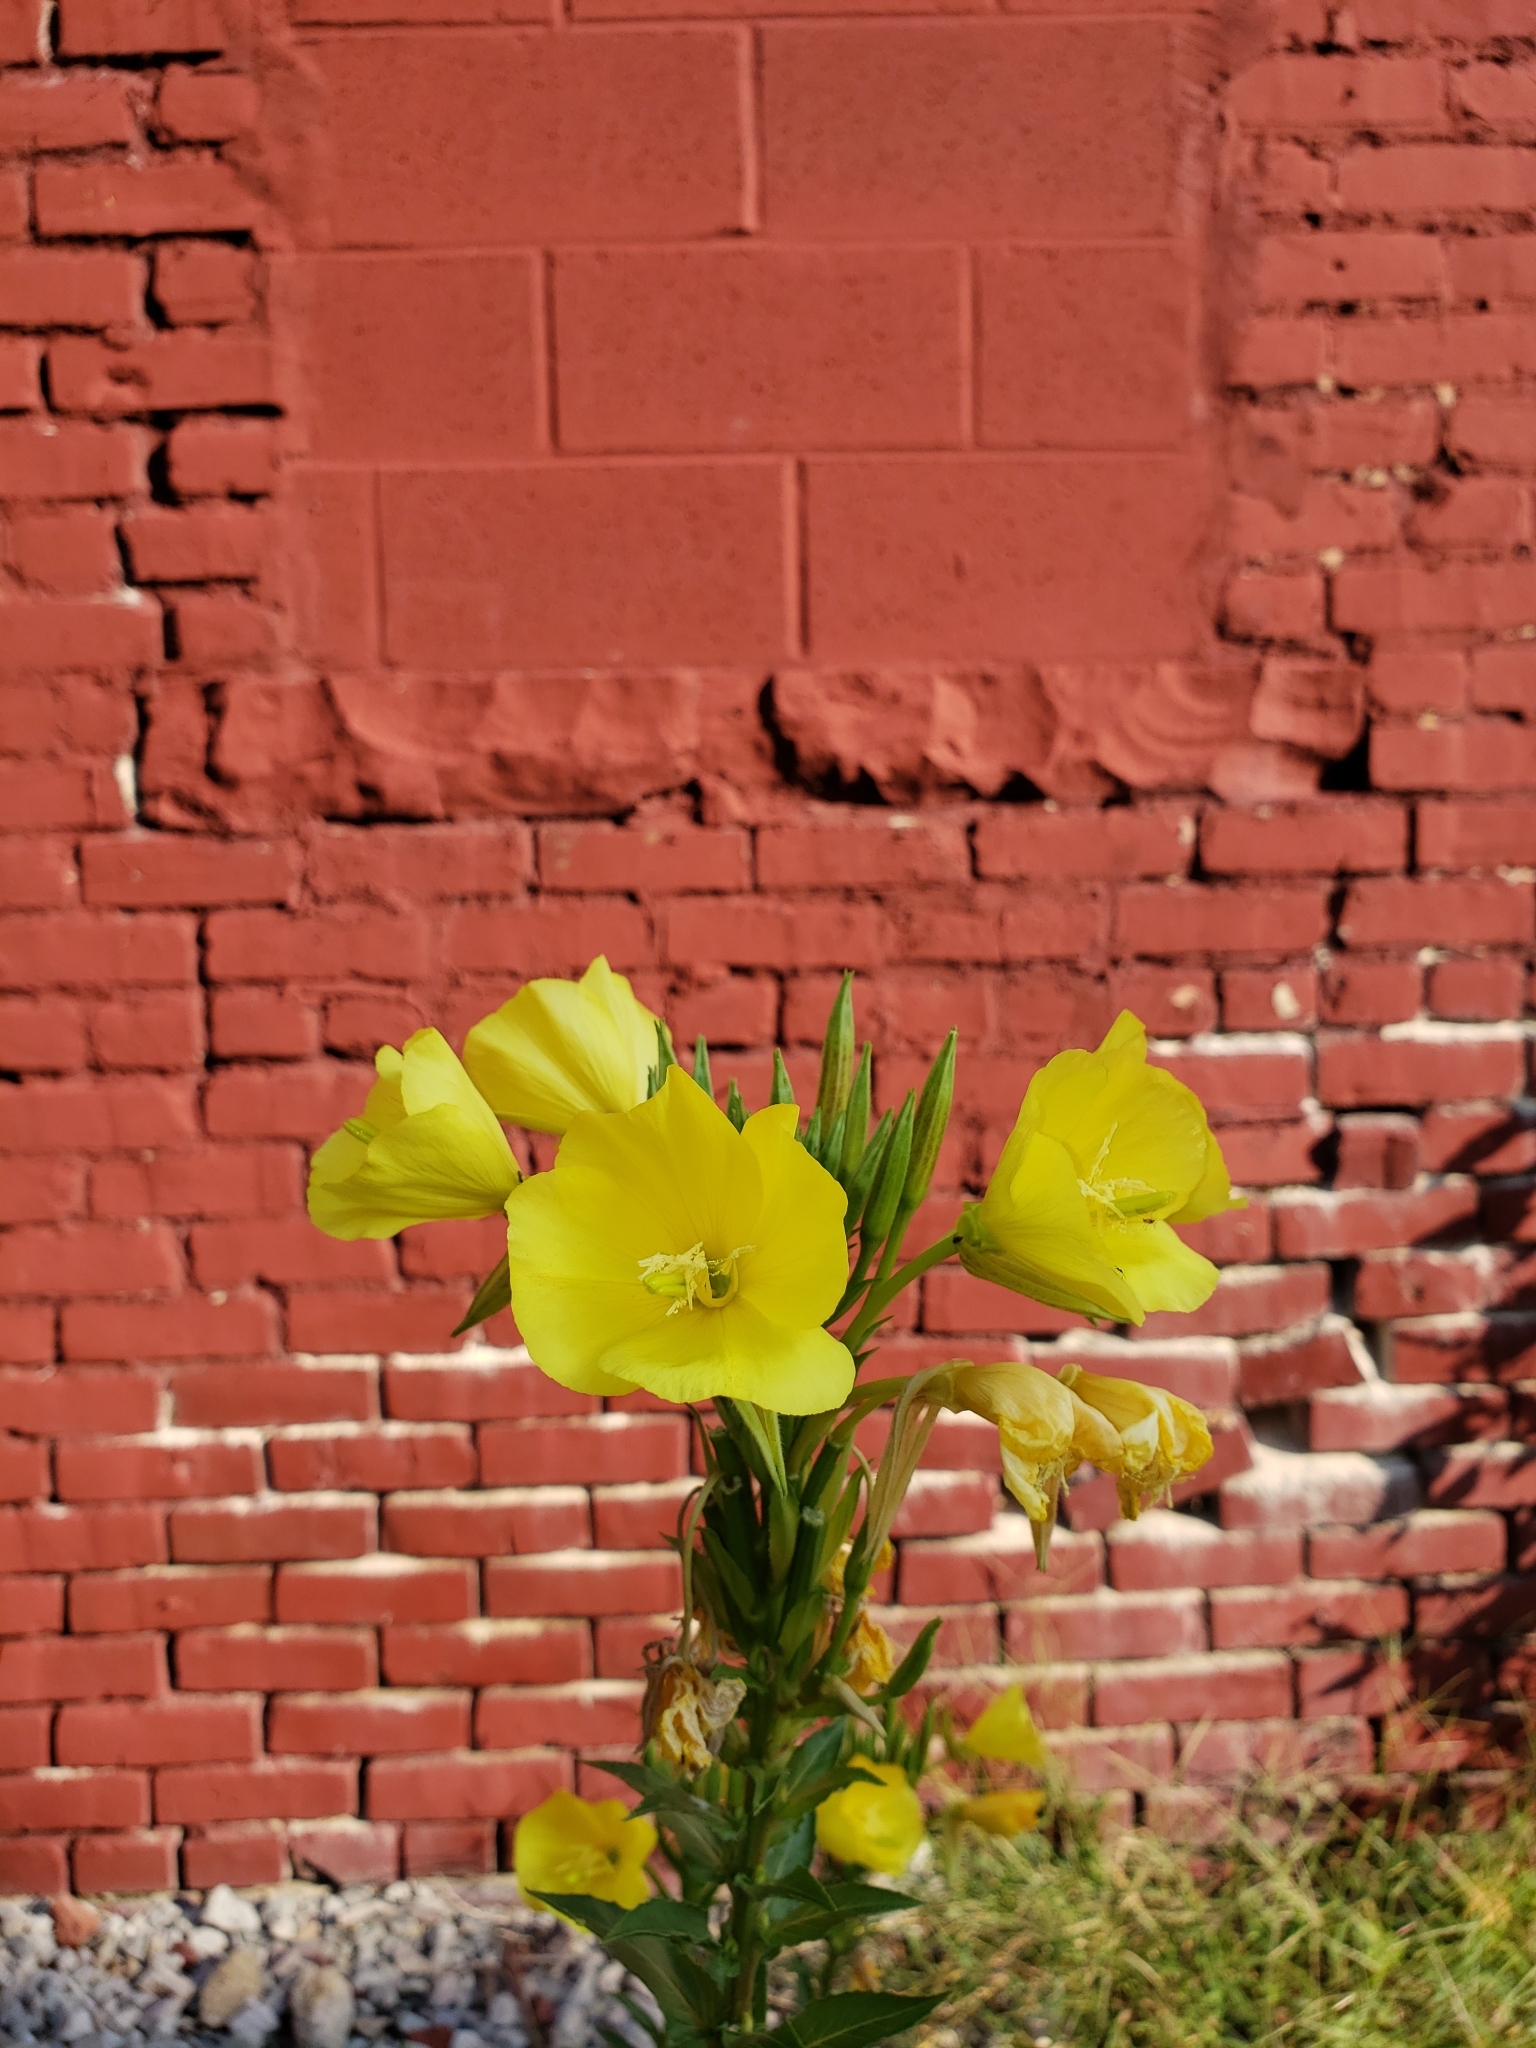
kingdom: Plantae
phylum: Tracheophyta
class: Magnoliopsida
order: Myrtales
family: Onagraceae
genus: Oenothera
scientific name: Oenothera biennis
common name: Common evening-primrose
